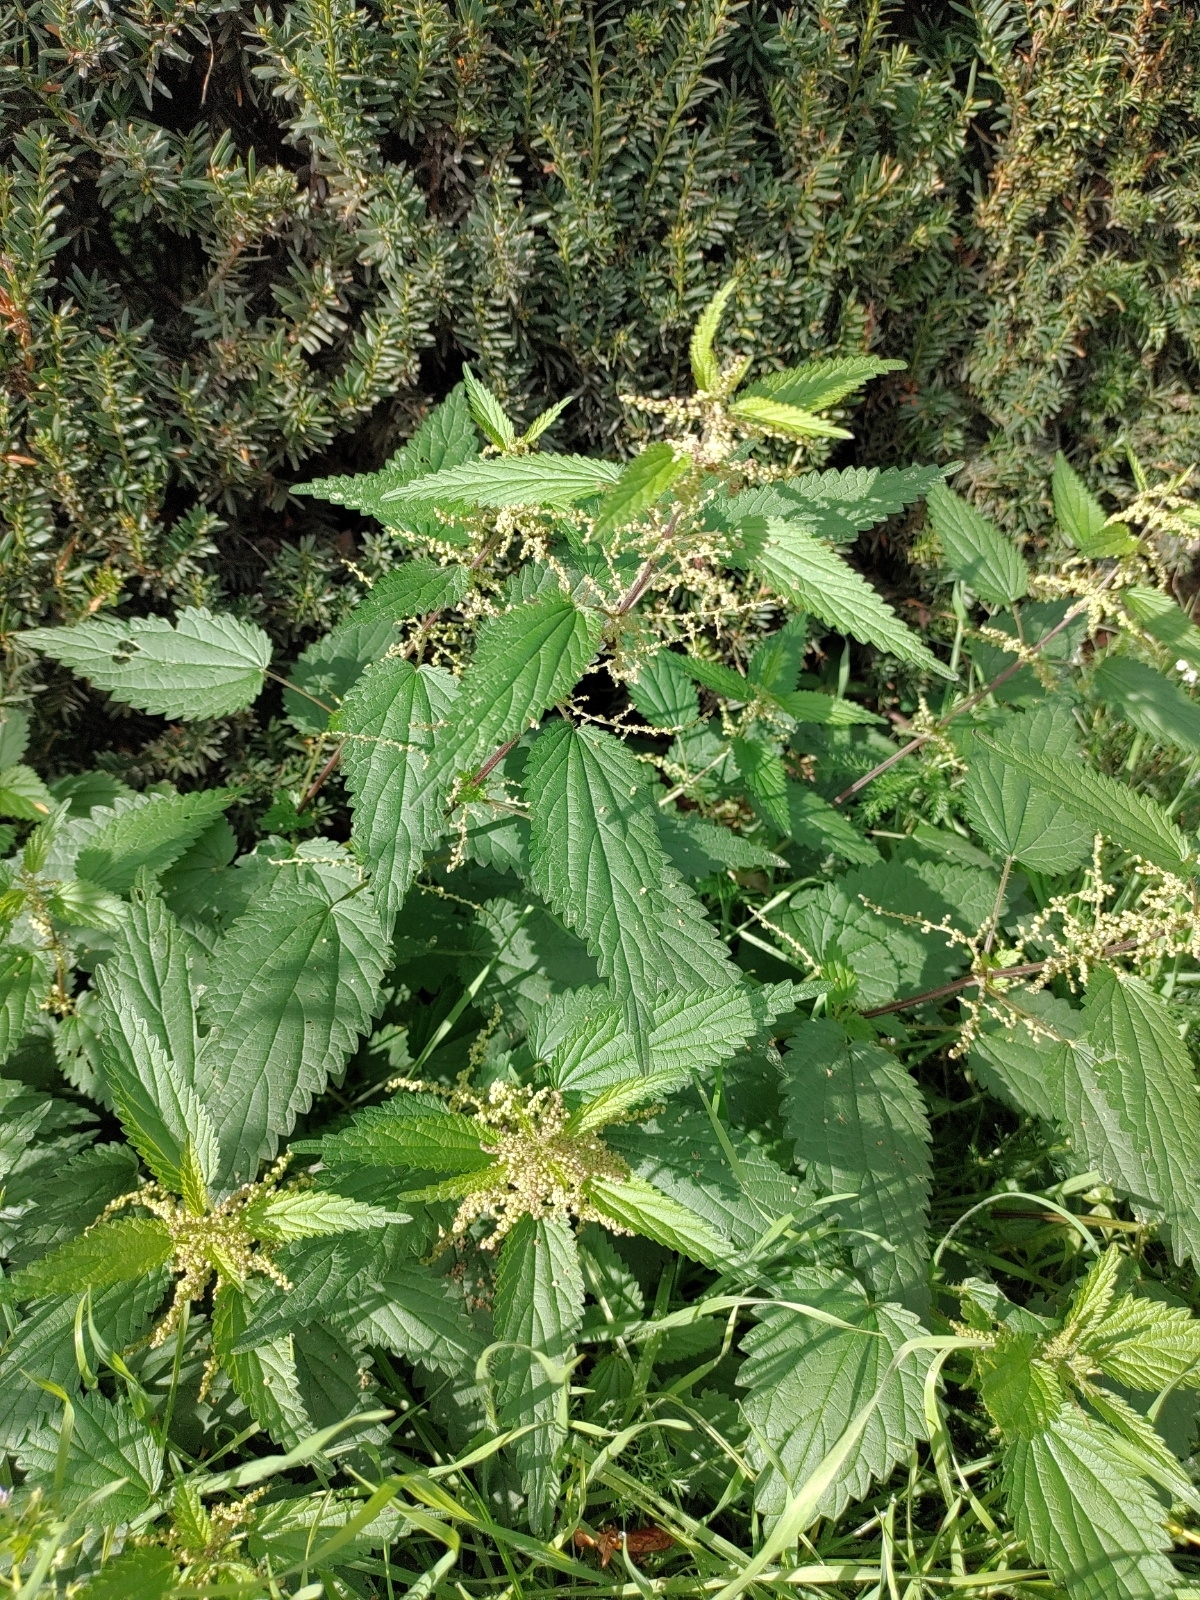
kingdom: Plantae
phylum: Tracheophyta
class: Magnoliopsida
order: Rosales
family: Urticaceae
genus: Urtica
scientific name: Urtica dioica
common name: Common nettle
